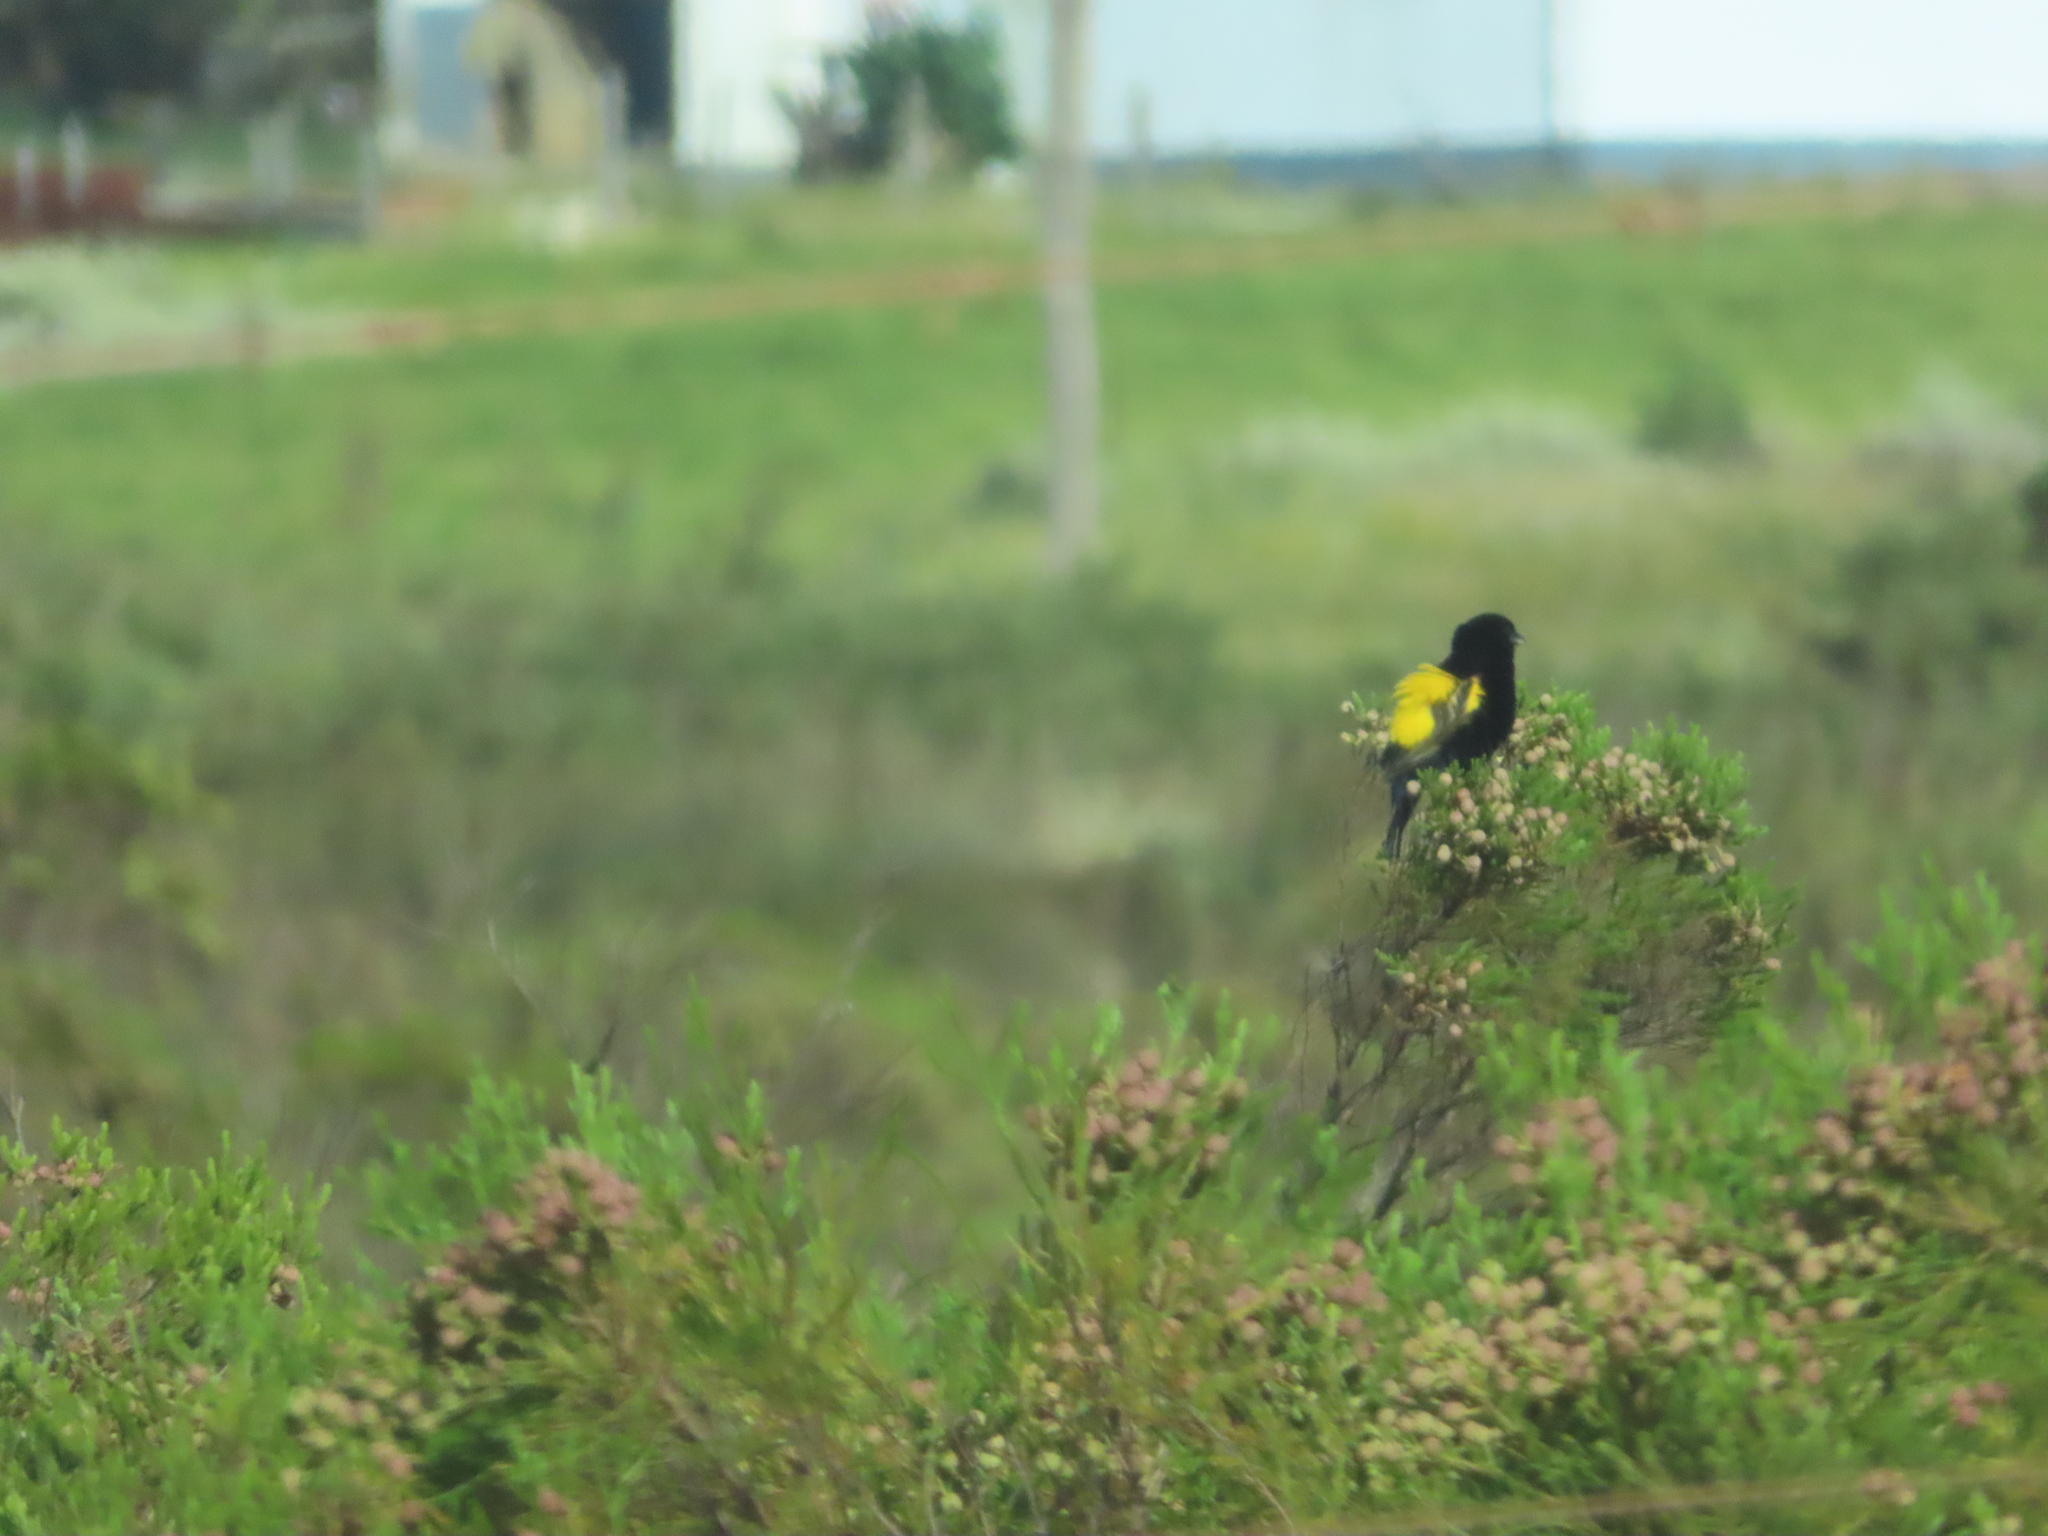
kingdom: Animalia
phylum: Chordata
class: Aves
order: Passeriformes
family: Ploceidae
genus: Euplectes
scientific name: Euplectes capensis
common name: Yellow bishop
